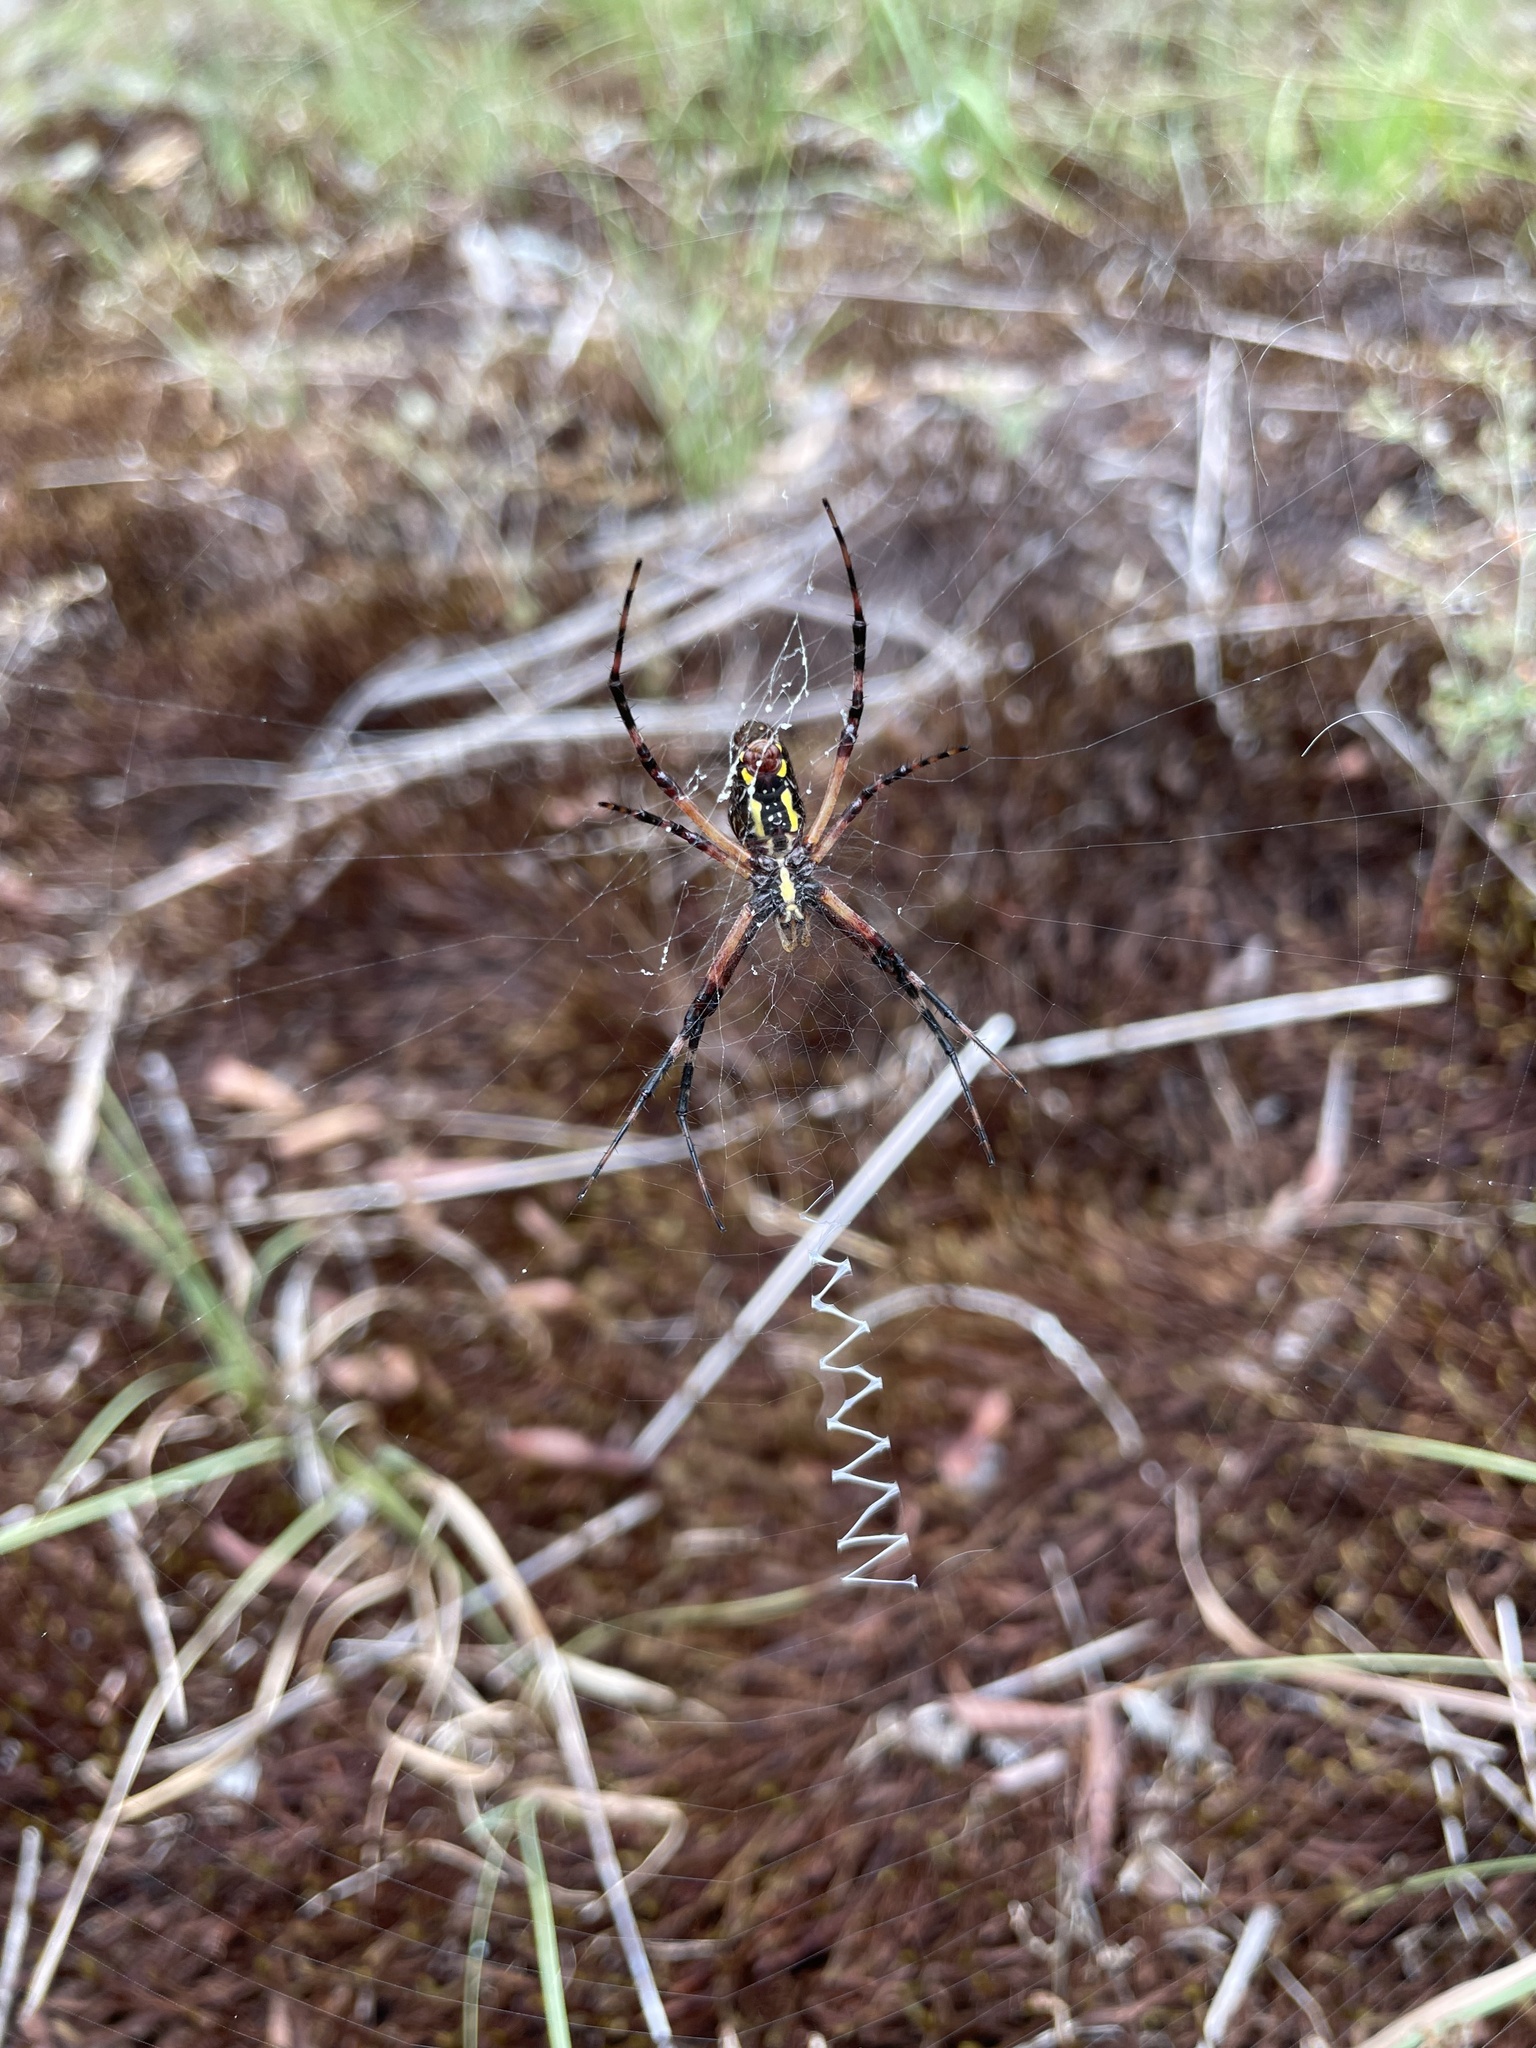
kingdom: Animalia
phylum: Arthropoda
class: Arachnida
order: Araneae
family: Araneidae
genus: Argiope
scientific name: Argiope aurantia
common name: Orb weavers
